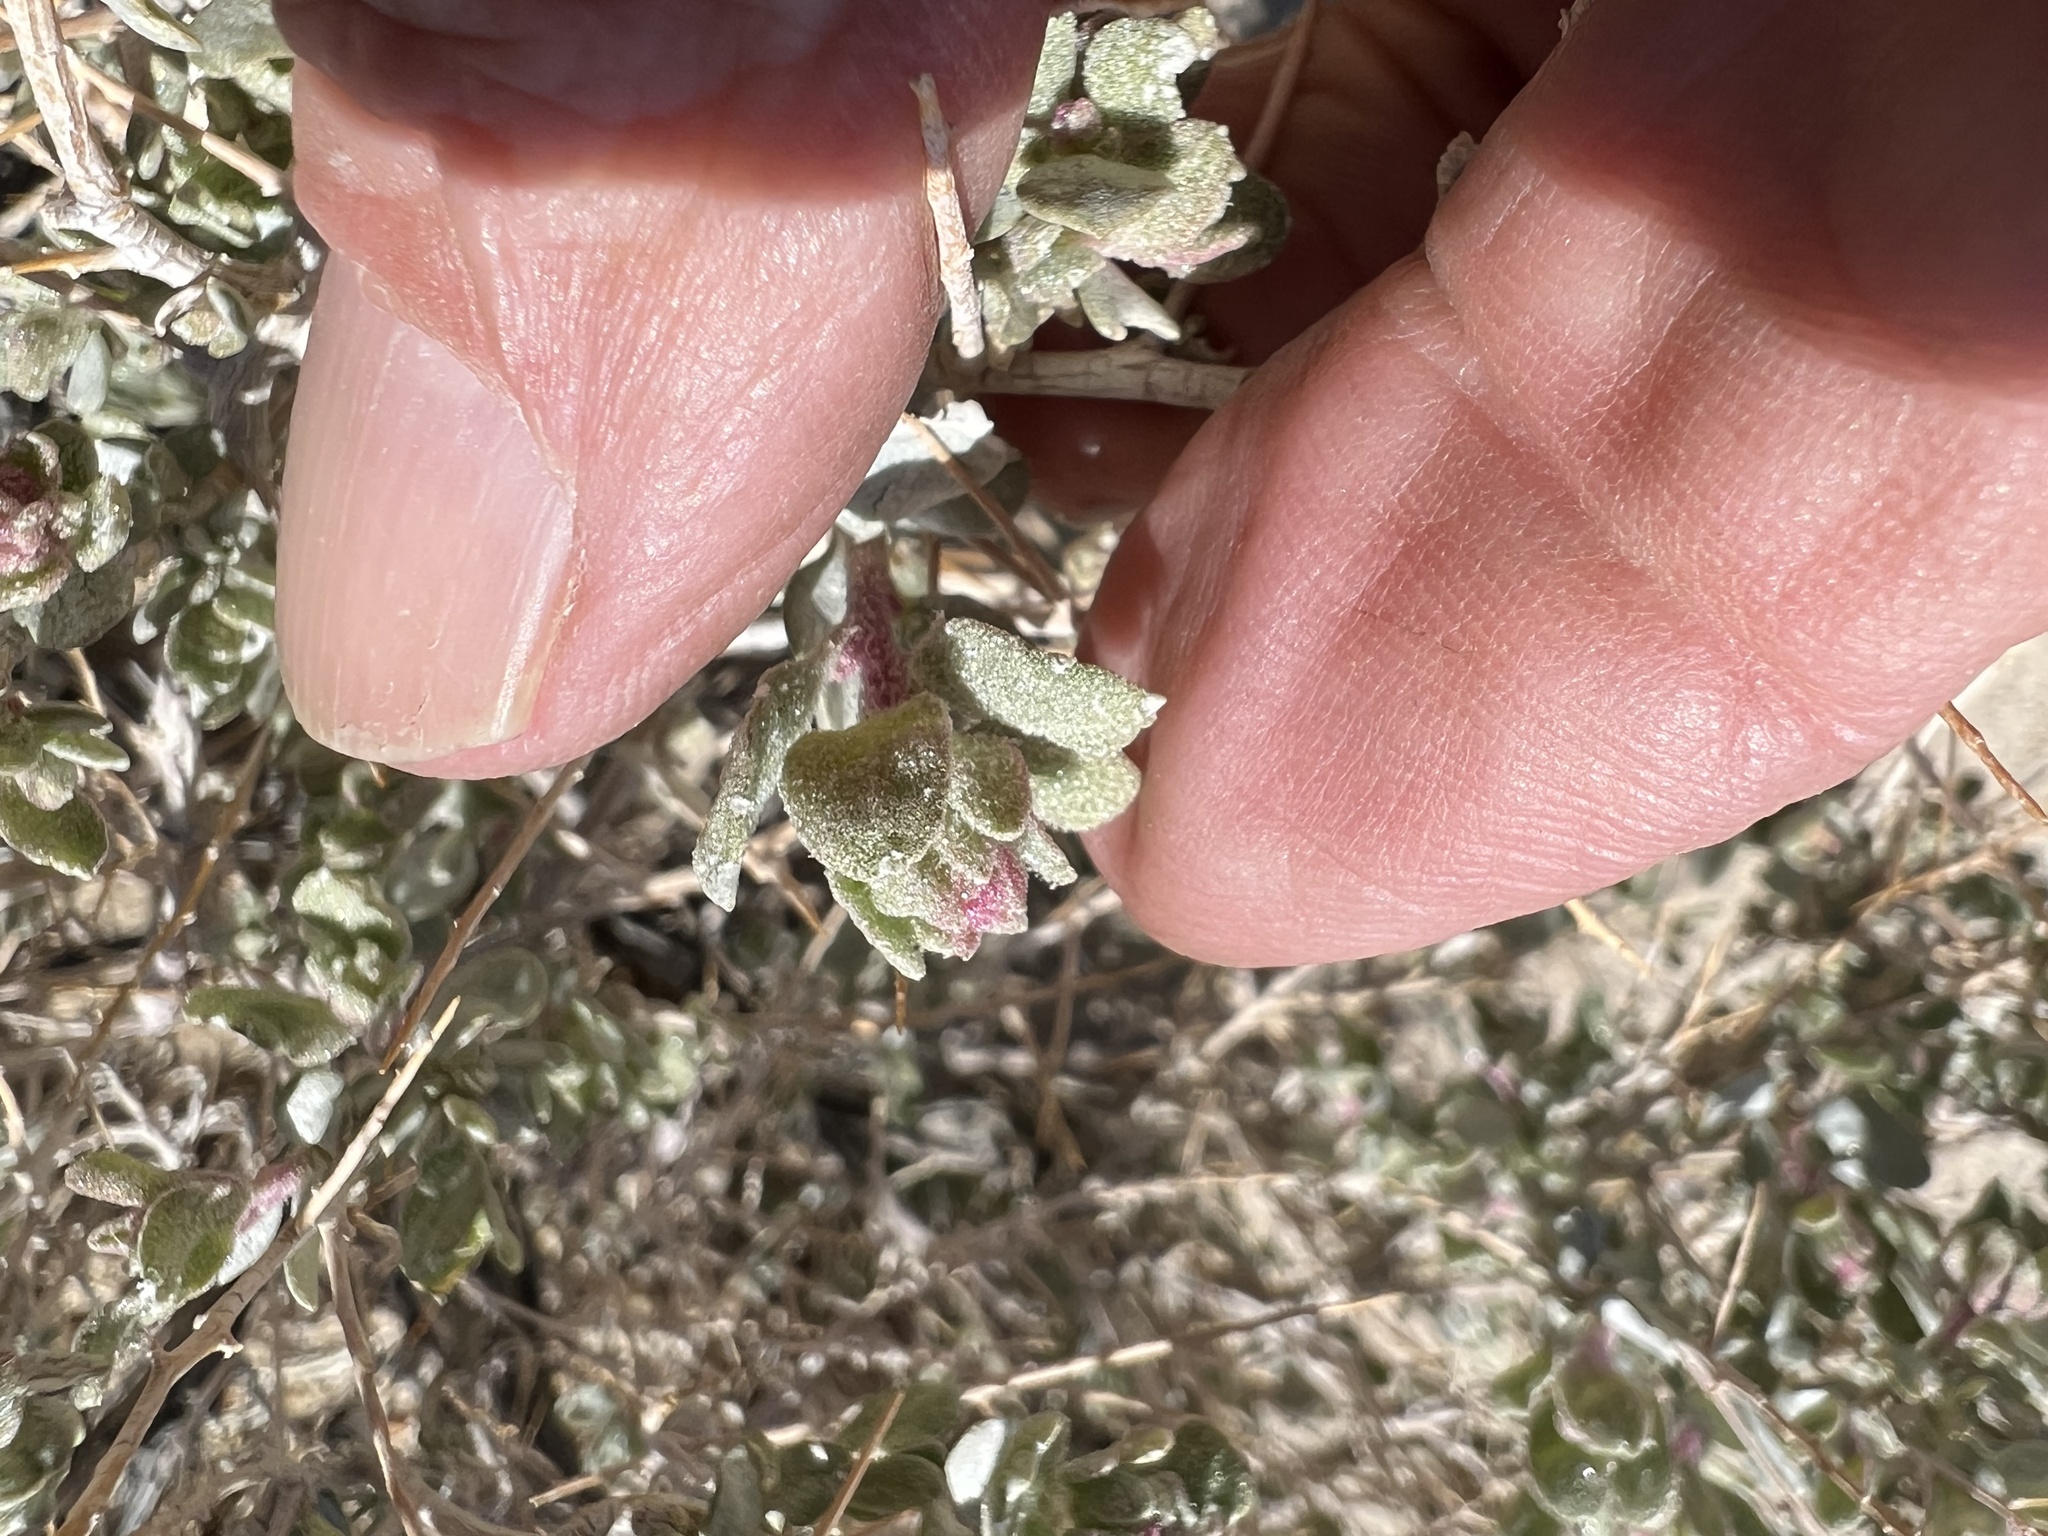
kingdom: Plantae
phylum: Tracheophyta
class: Magnoliopsida
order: Caryophyllales
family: Amaranthaceae
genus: Atriplex
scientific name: Atriplex confertifolia
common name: Shadscale
